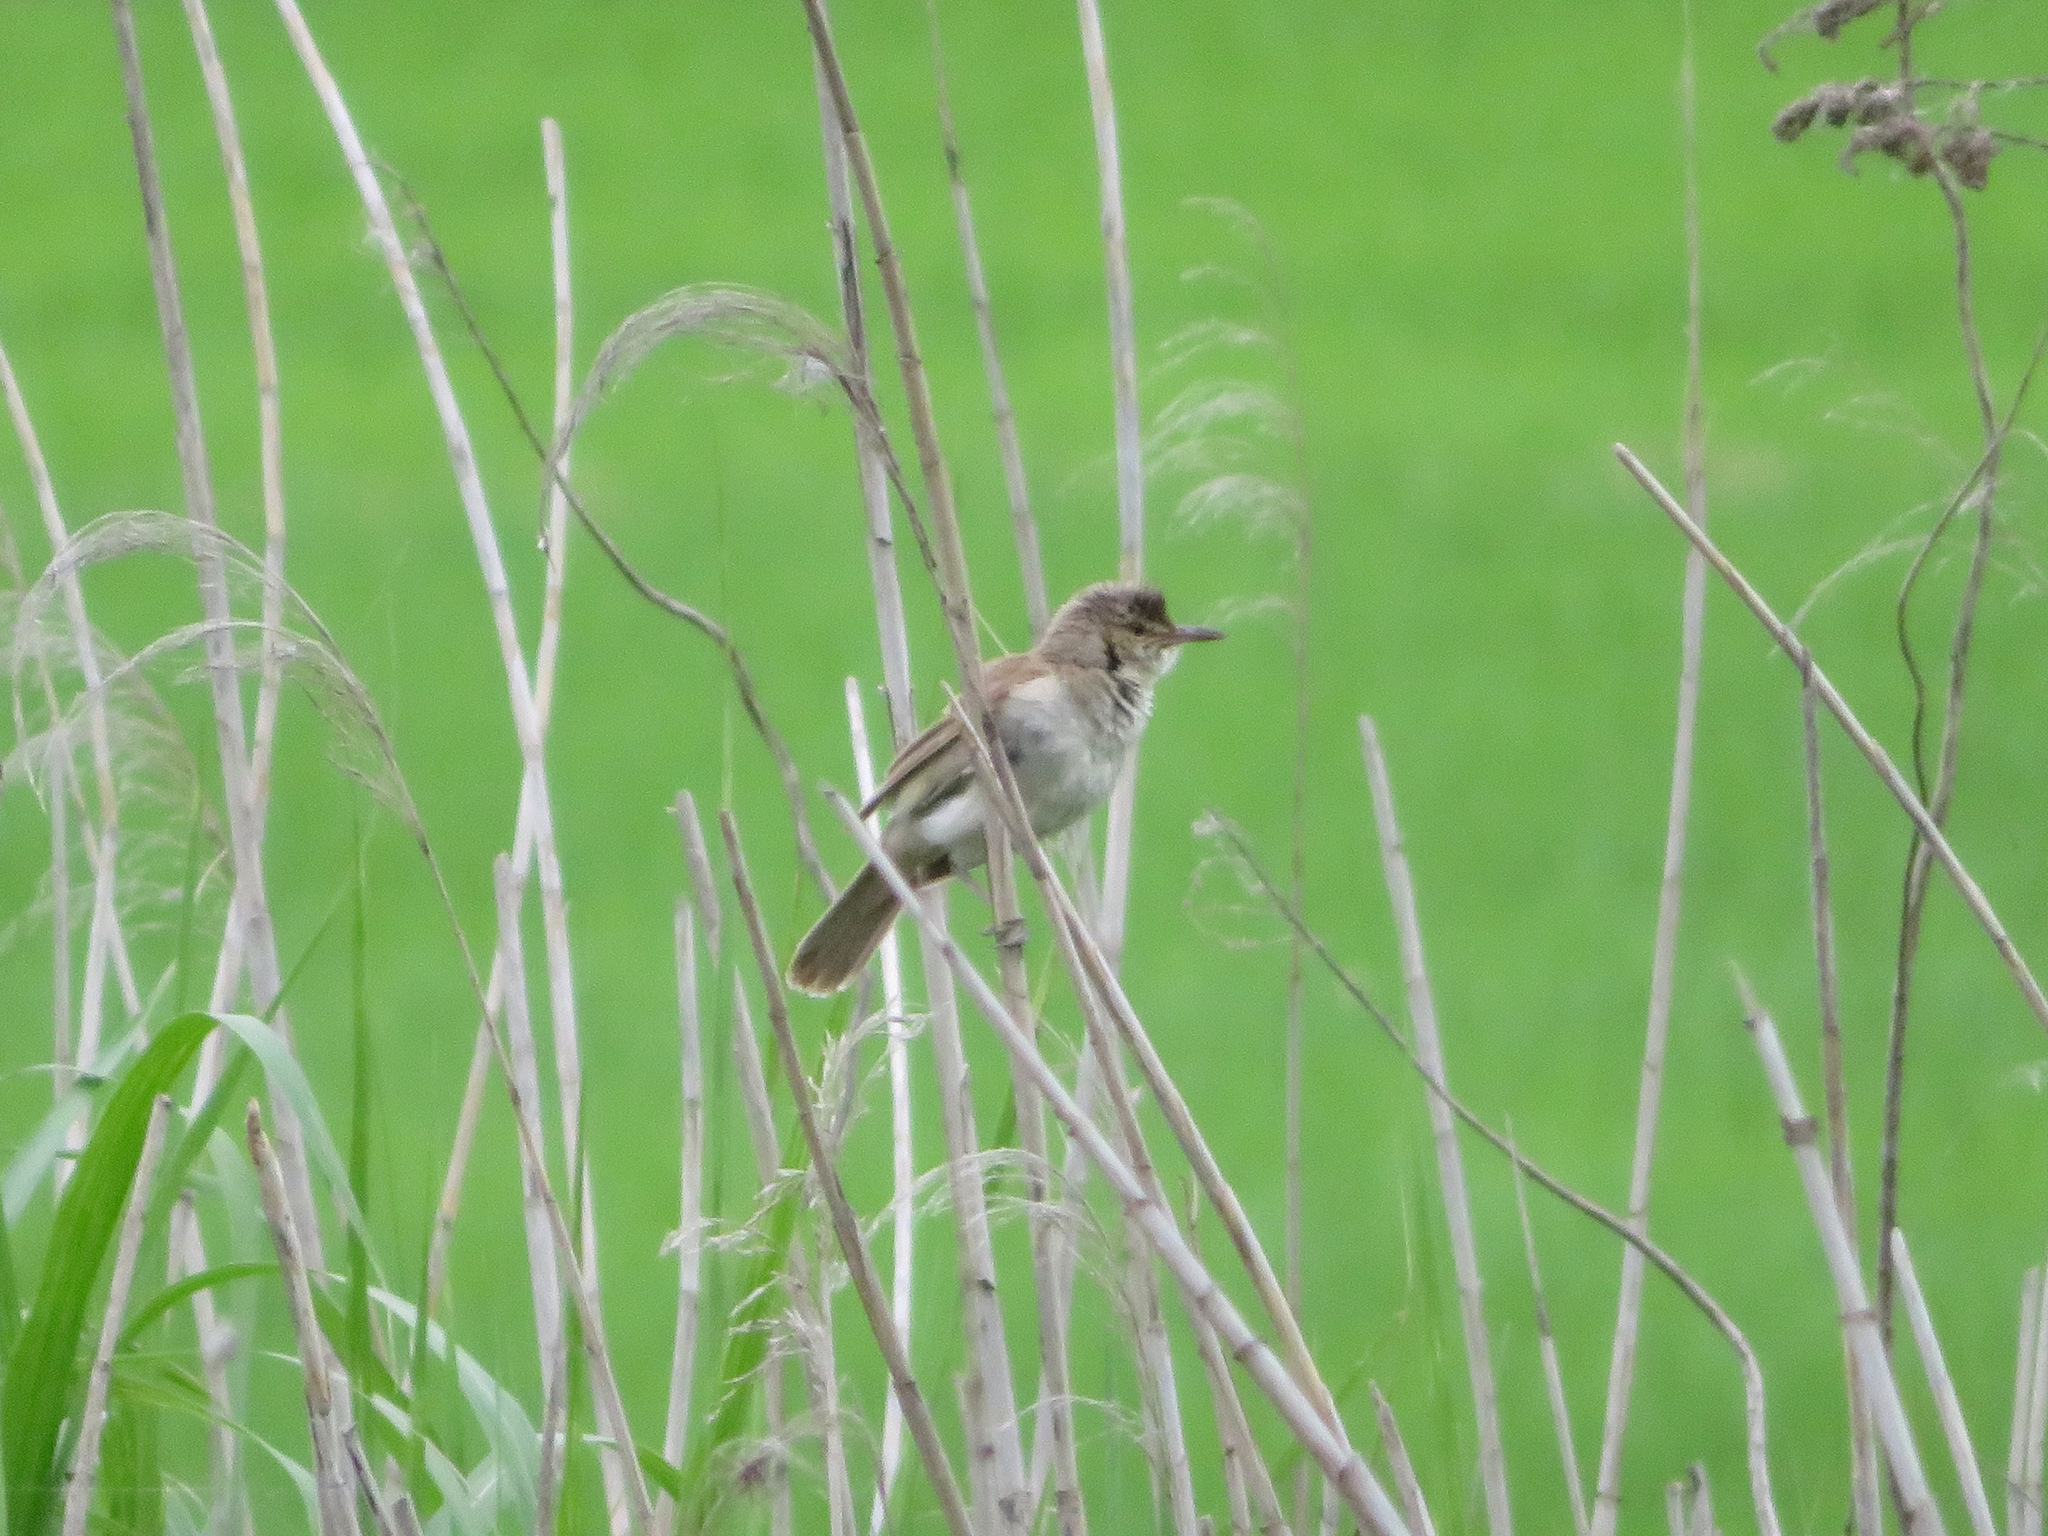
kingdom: Animalia
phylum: Chordata
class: Aves
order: Passeriformes
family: Acrocephalidae
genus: Acrocephalus
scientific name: Acrocephalus orientalis
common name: Oriental reed warbler
